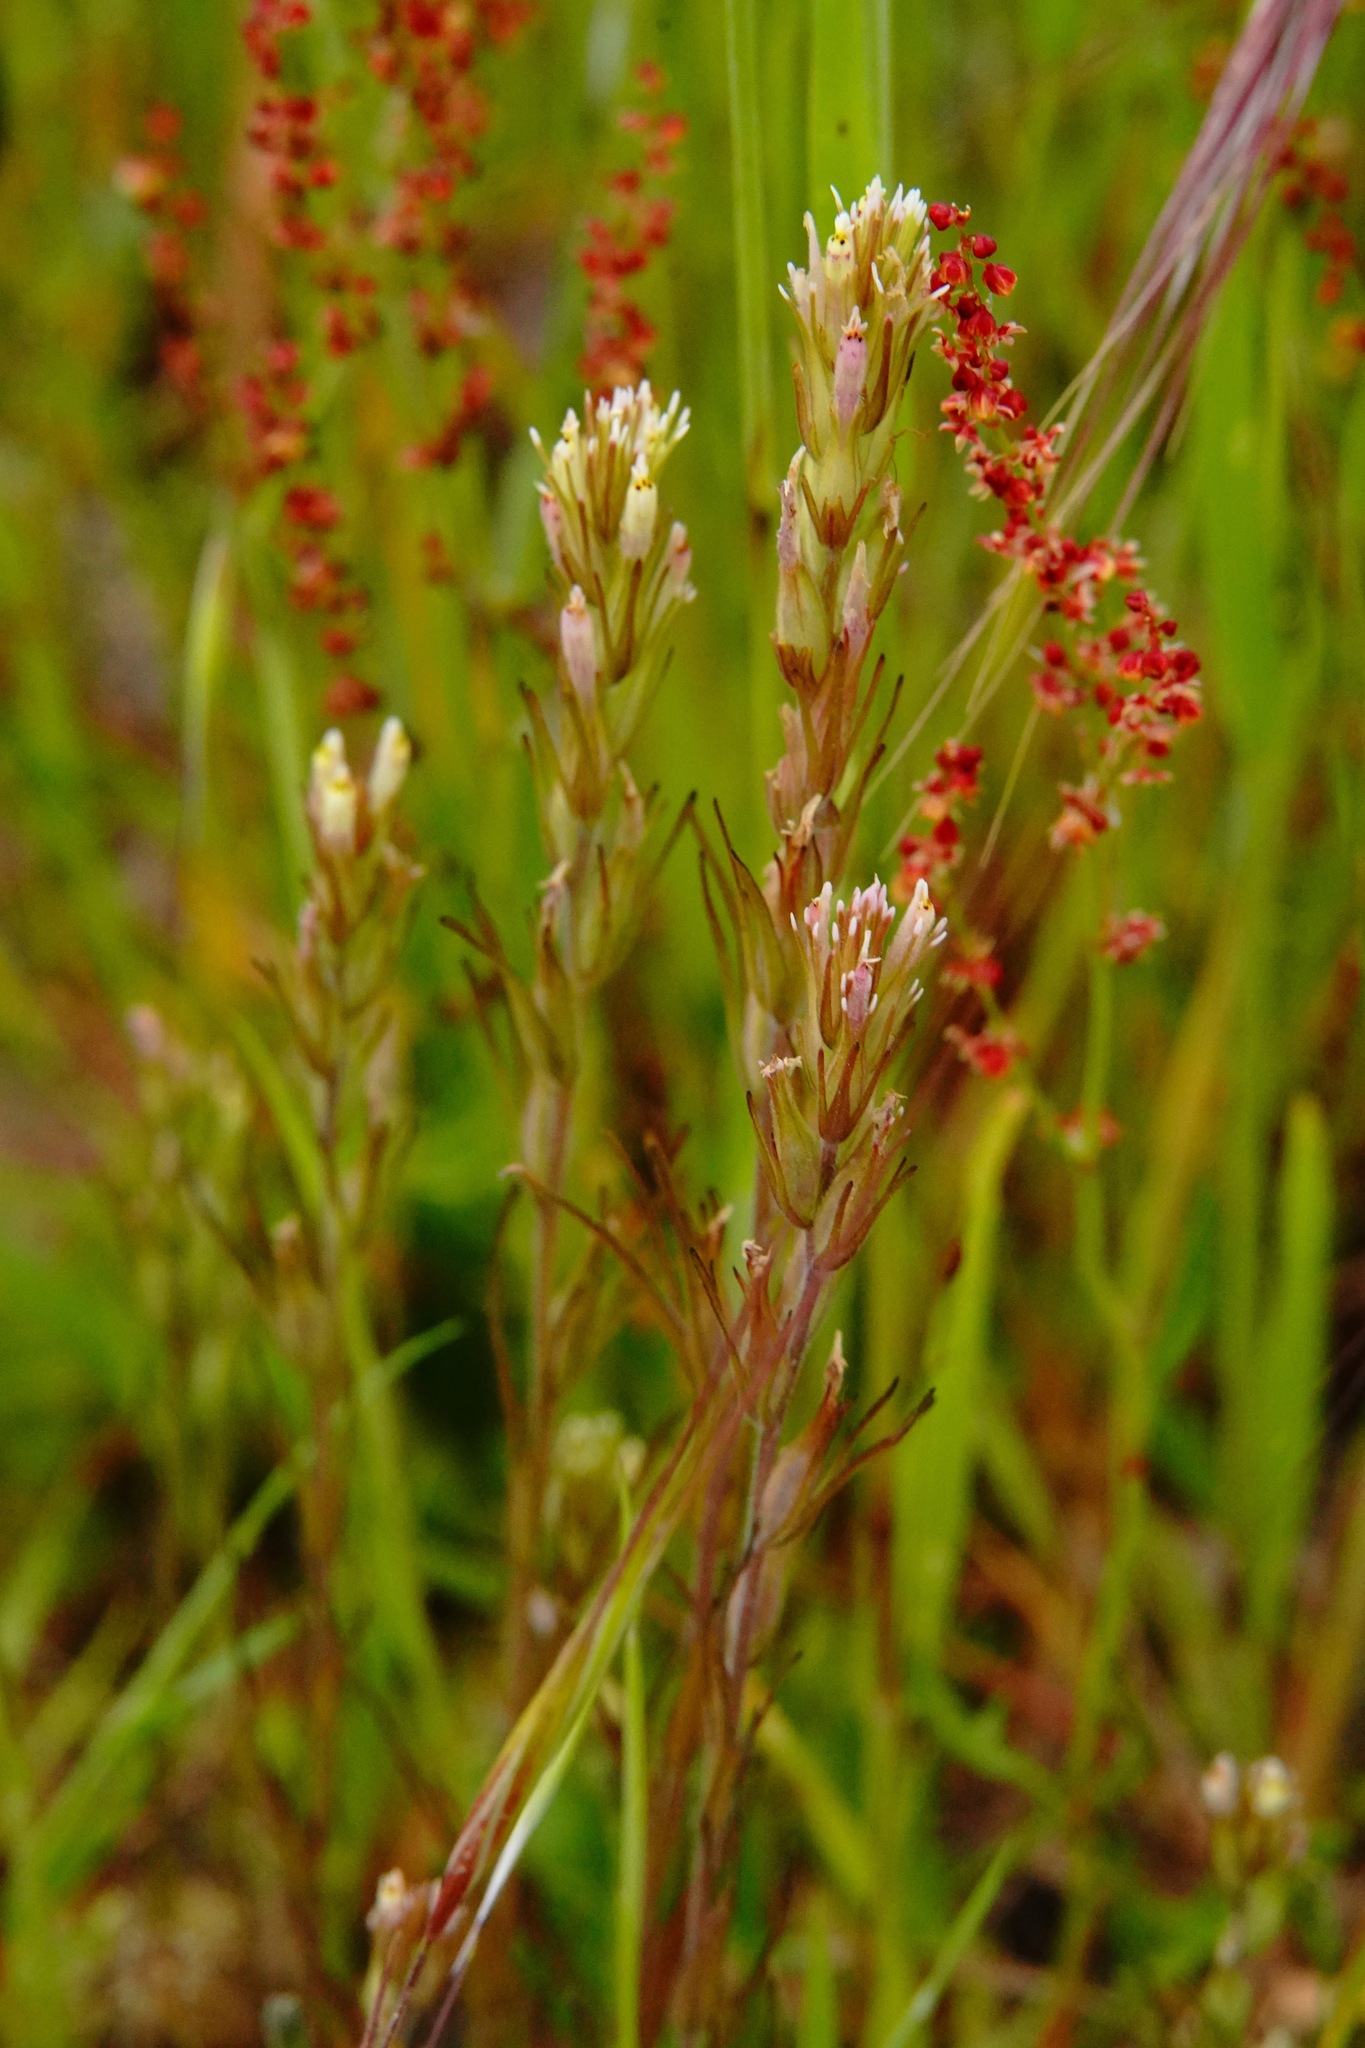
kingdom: Plantae
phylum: Tracheophyta
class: Magnoliopsida
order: Lamiales
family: Orobanchaceae
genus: Castilleja
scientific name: Castilleja attenuata
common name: Valley tassels
